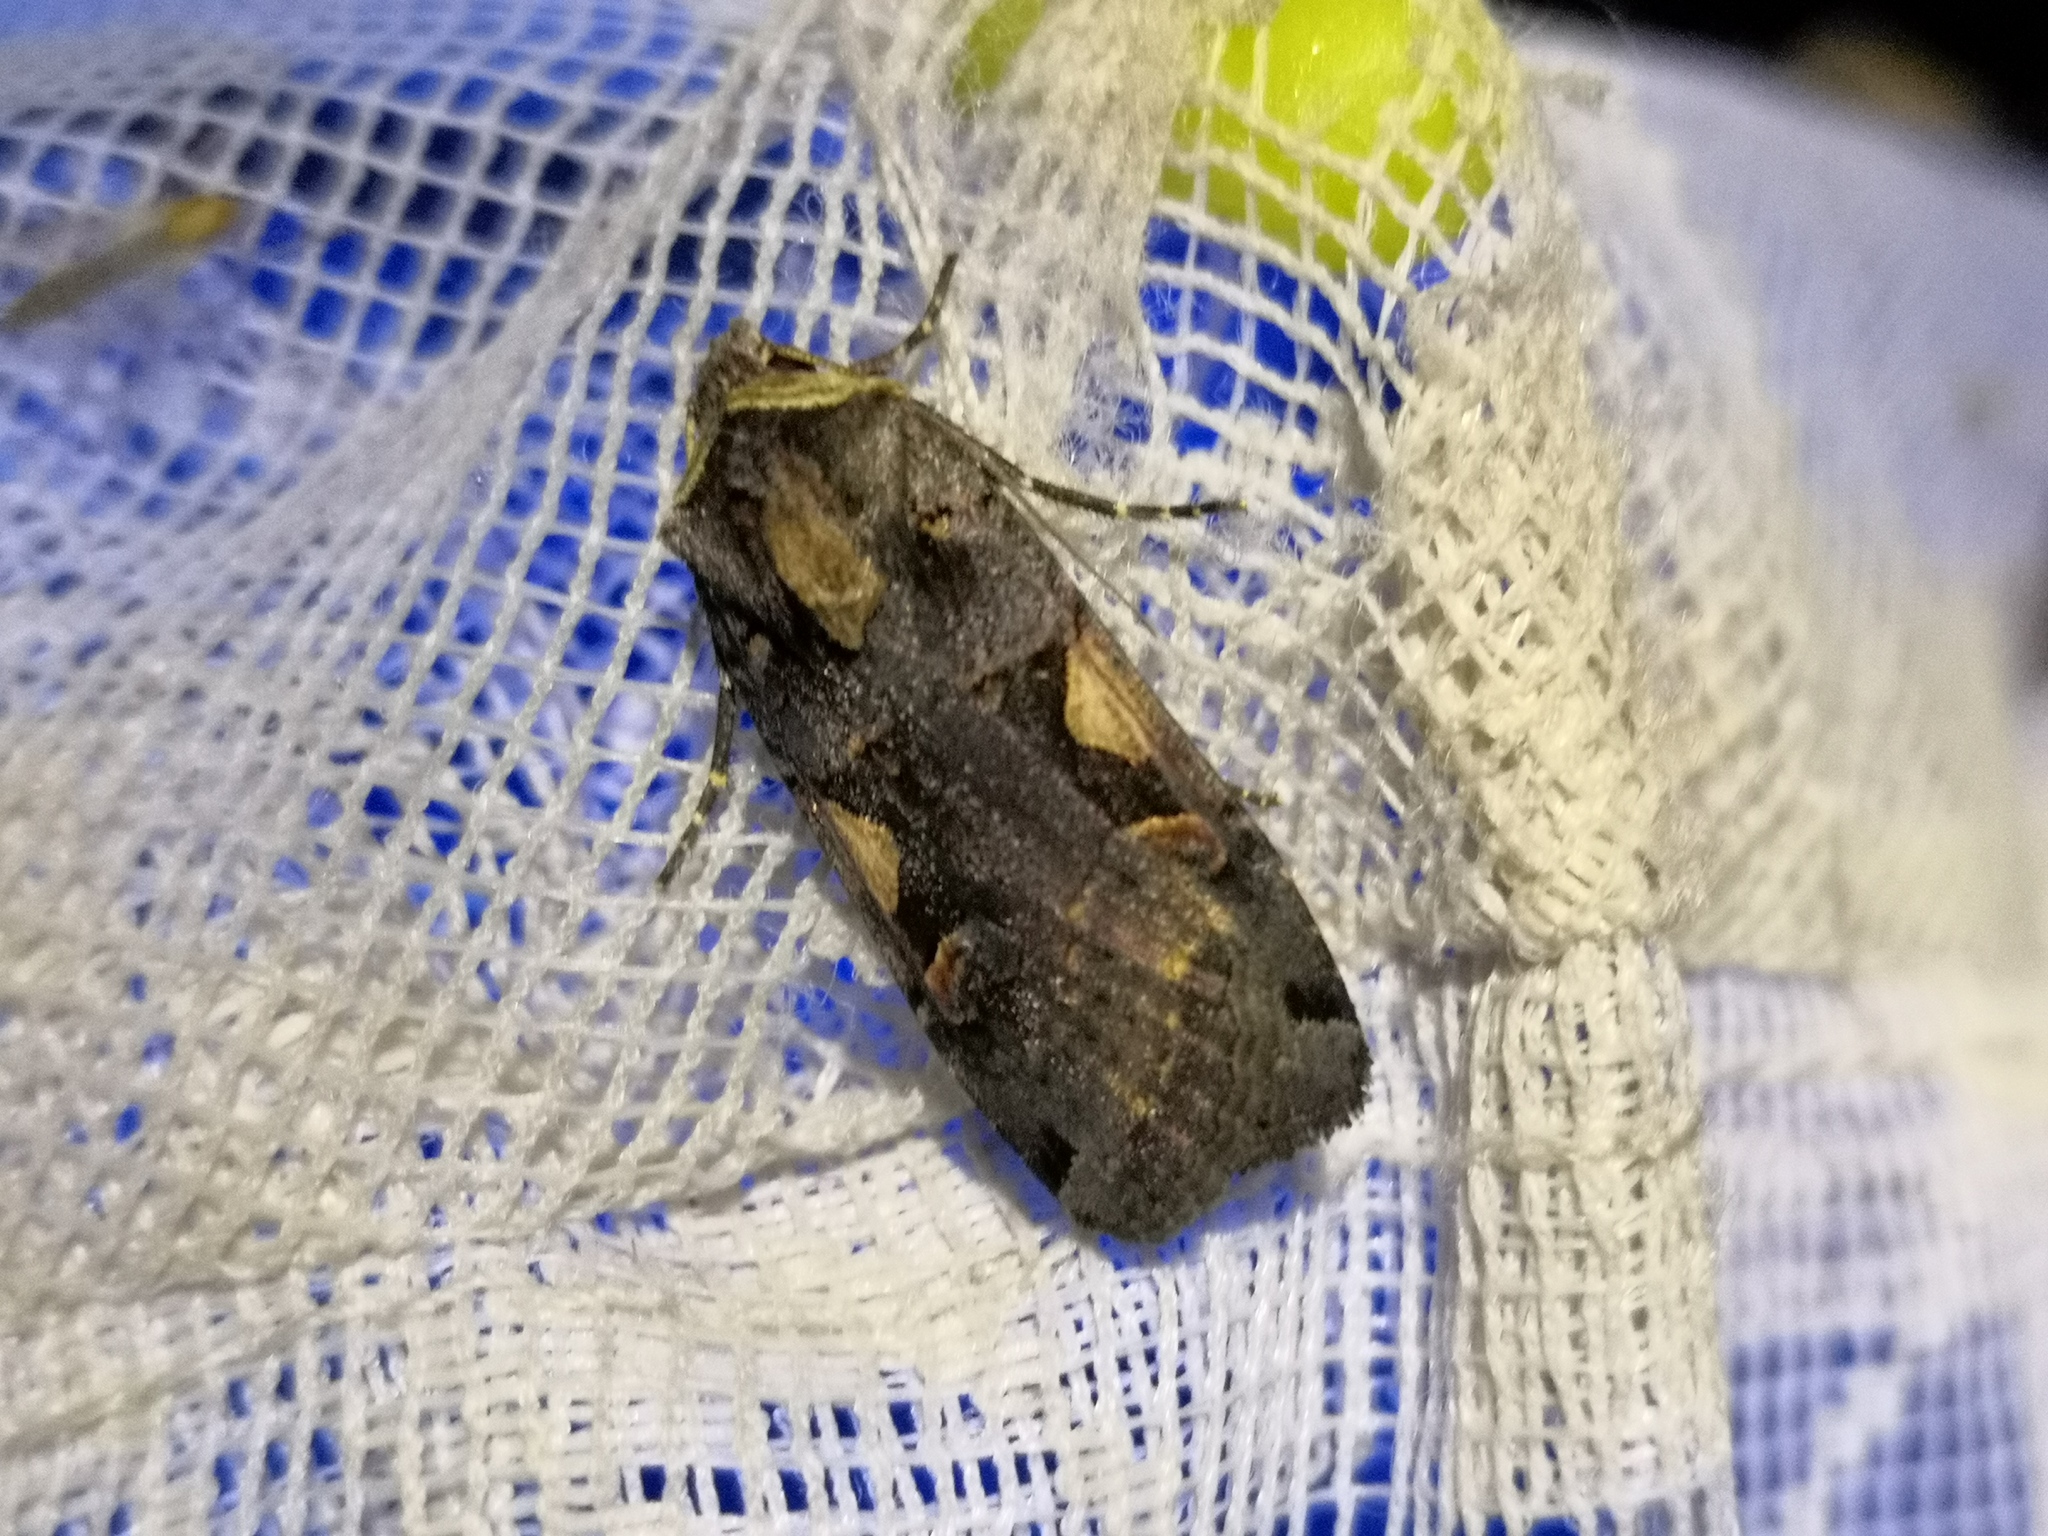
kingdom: Animalia
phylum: Arthropoda
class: Insecta
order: Lepidoptera
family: Noctuidae
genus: Xestia
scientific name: Xestia c-nigrum
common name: Setaceous hebrew character
